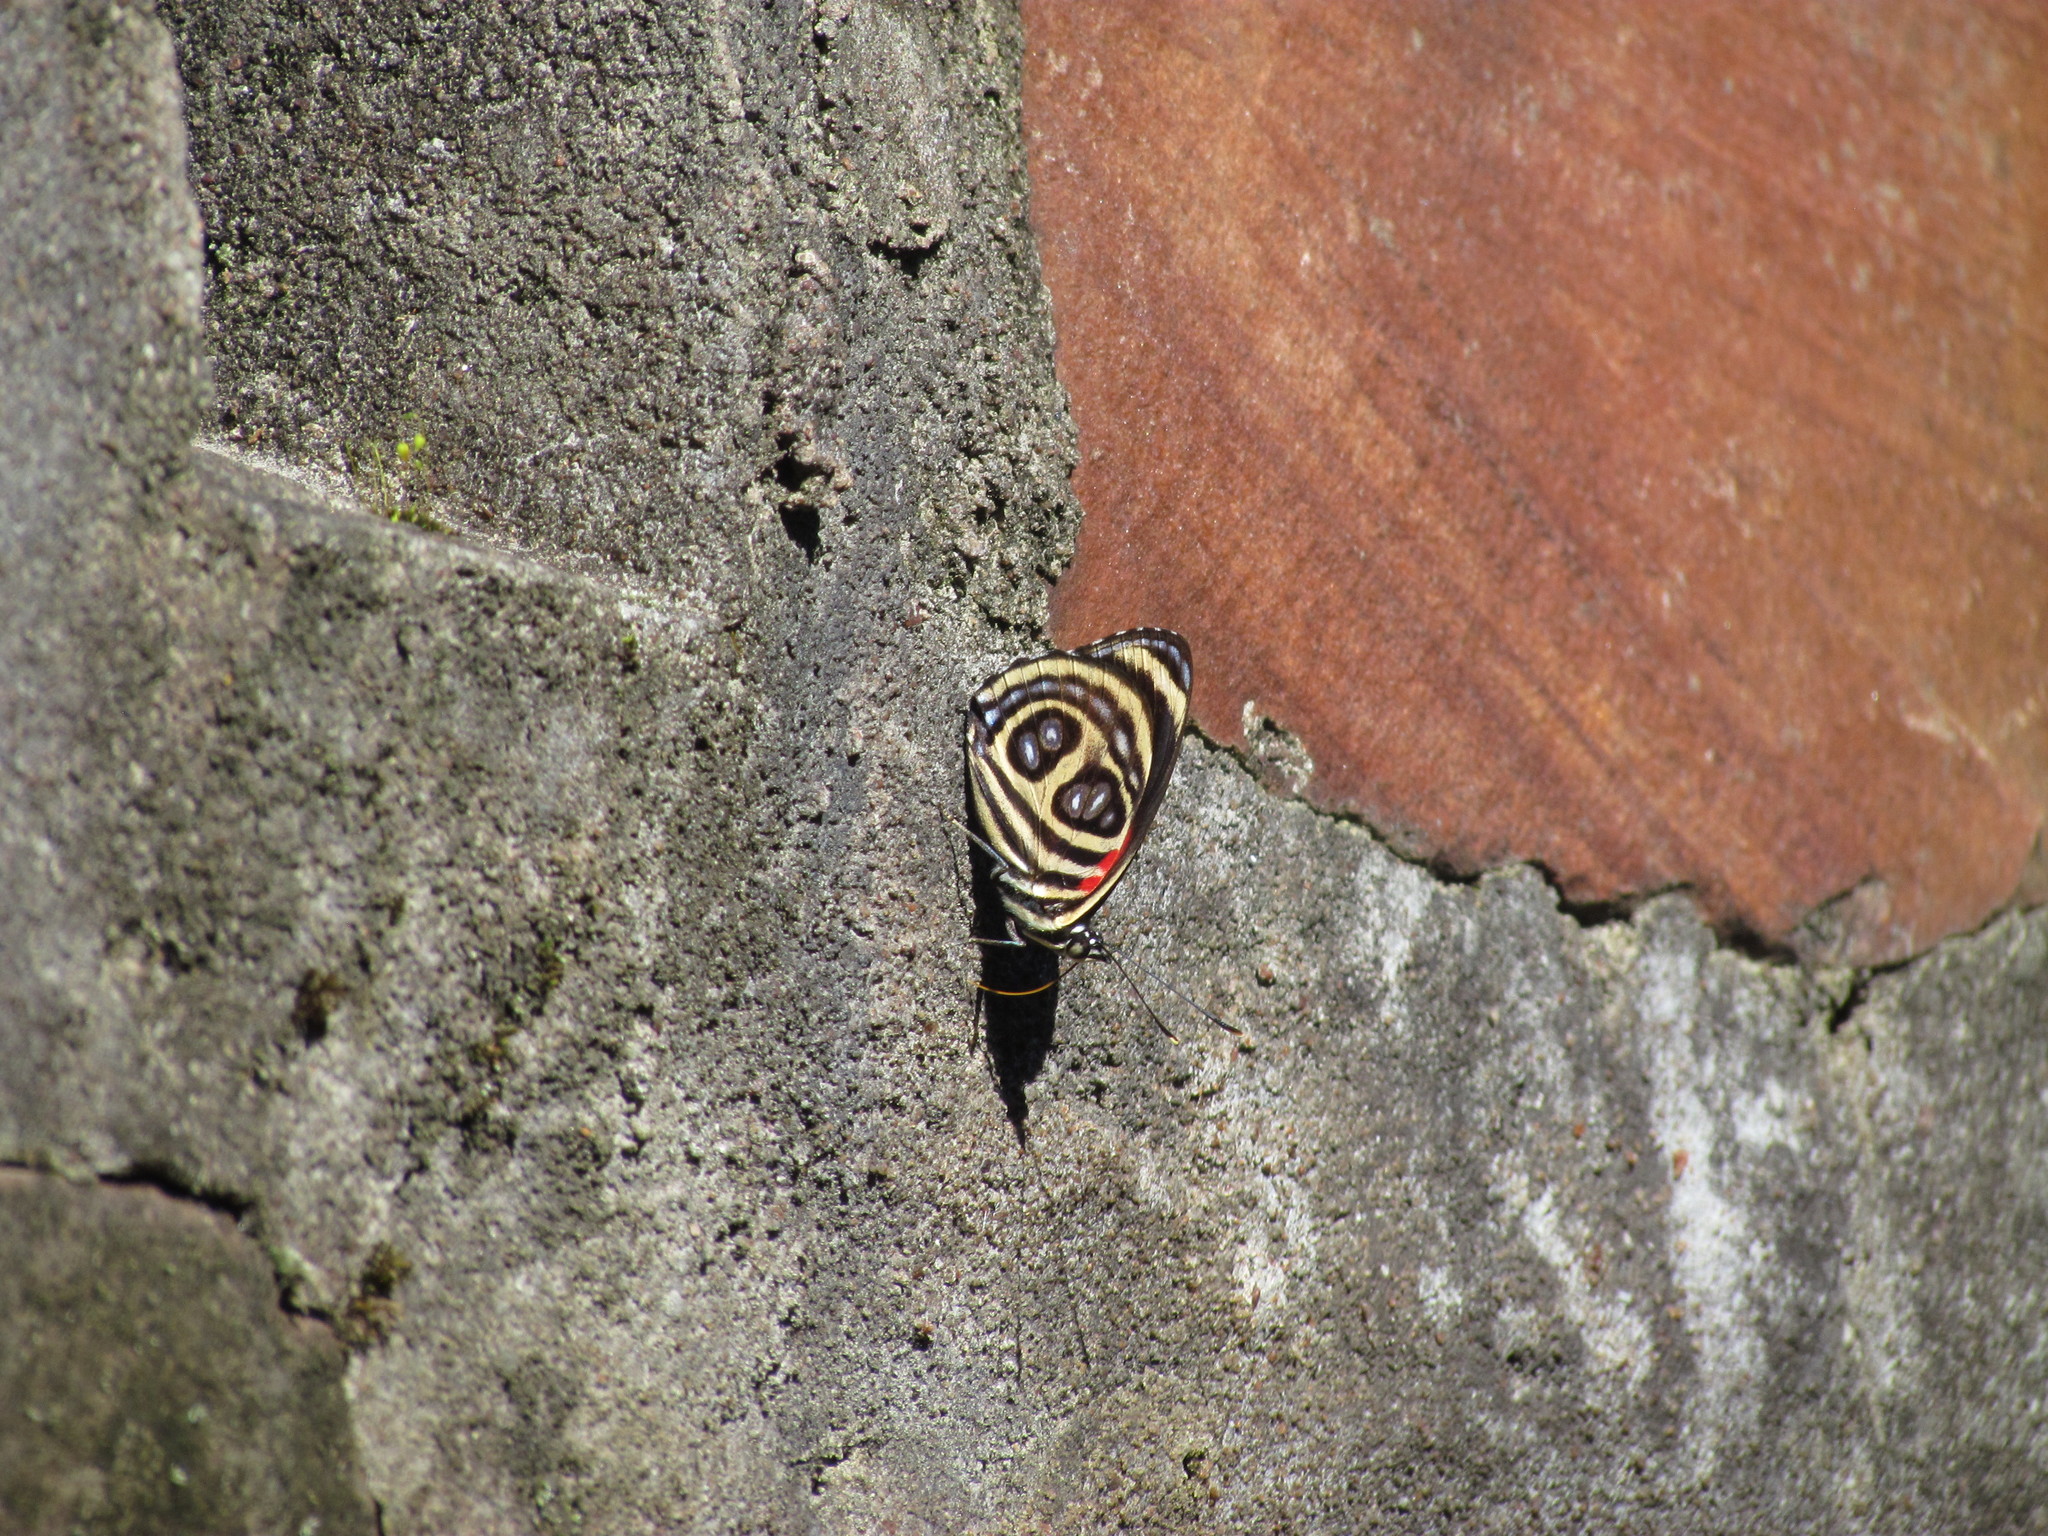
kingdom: Animalia
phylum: Arthropoda
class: Insecta
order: Lepidoptera
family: Nymphalidae
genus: Catagramma
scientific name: Catagramma pygas
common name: Godart's numberwing
